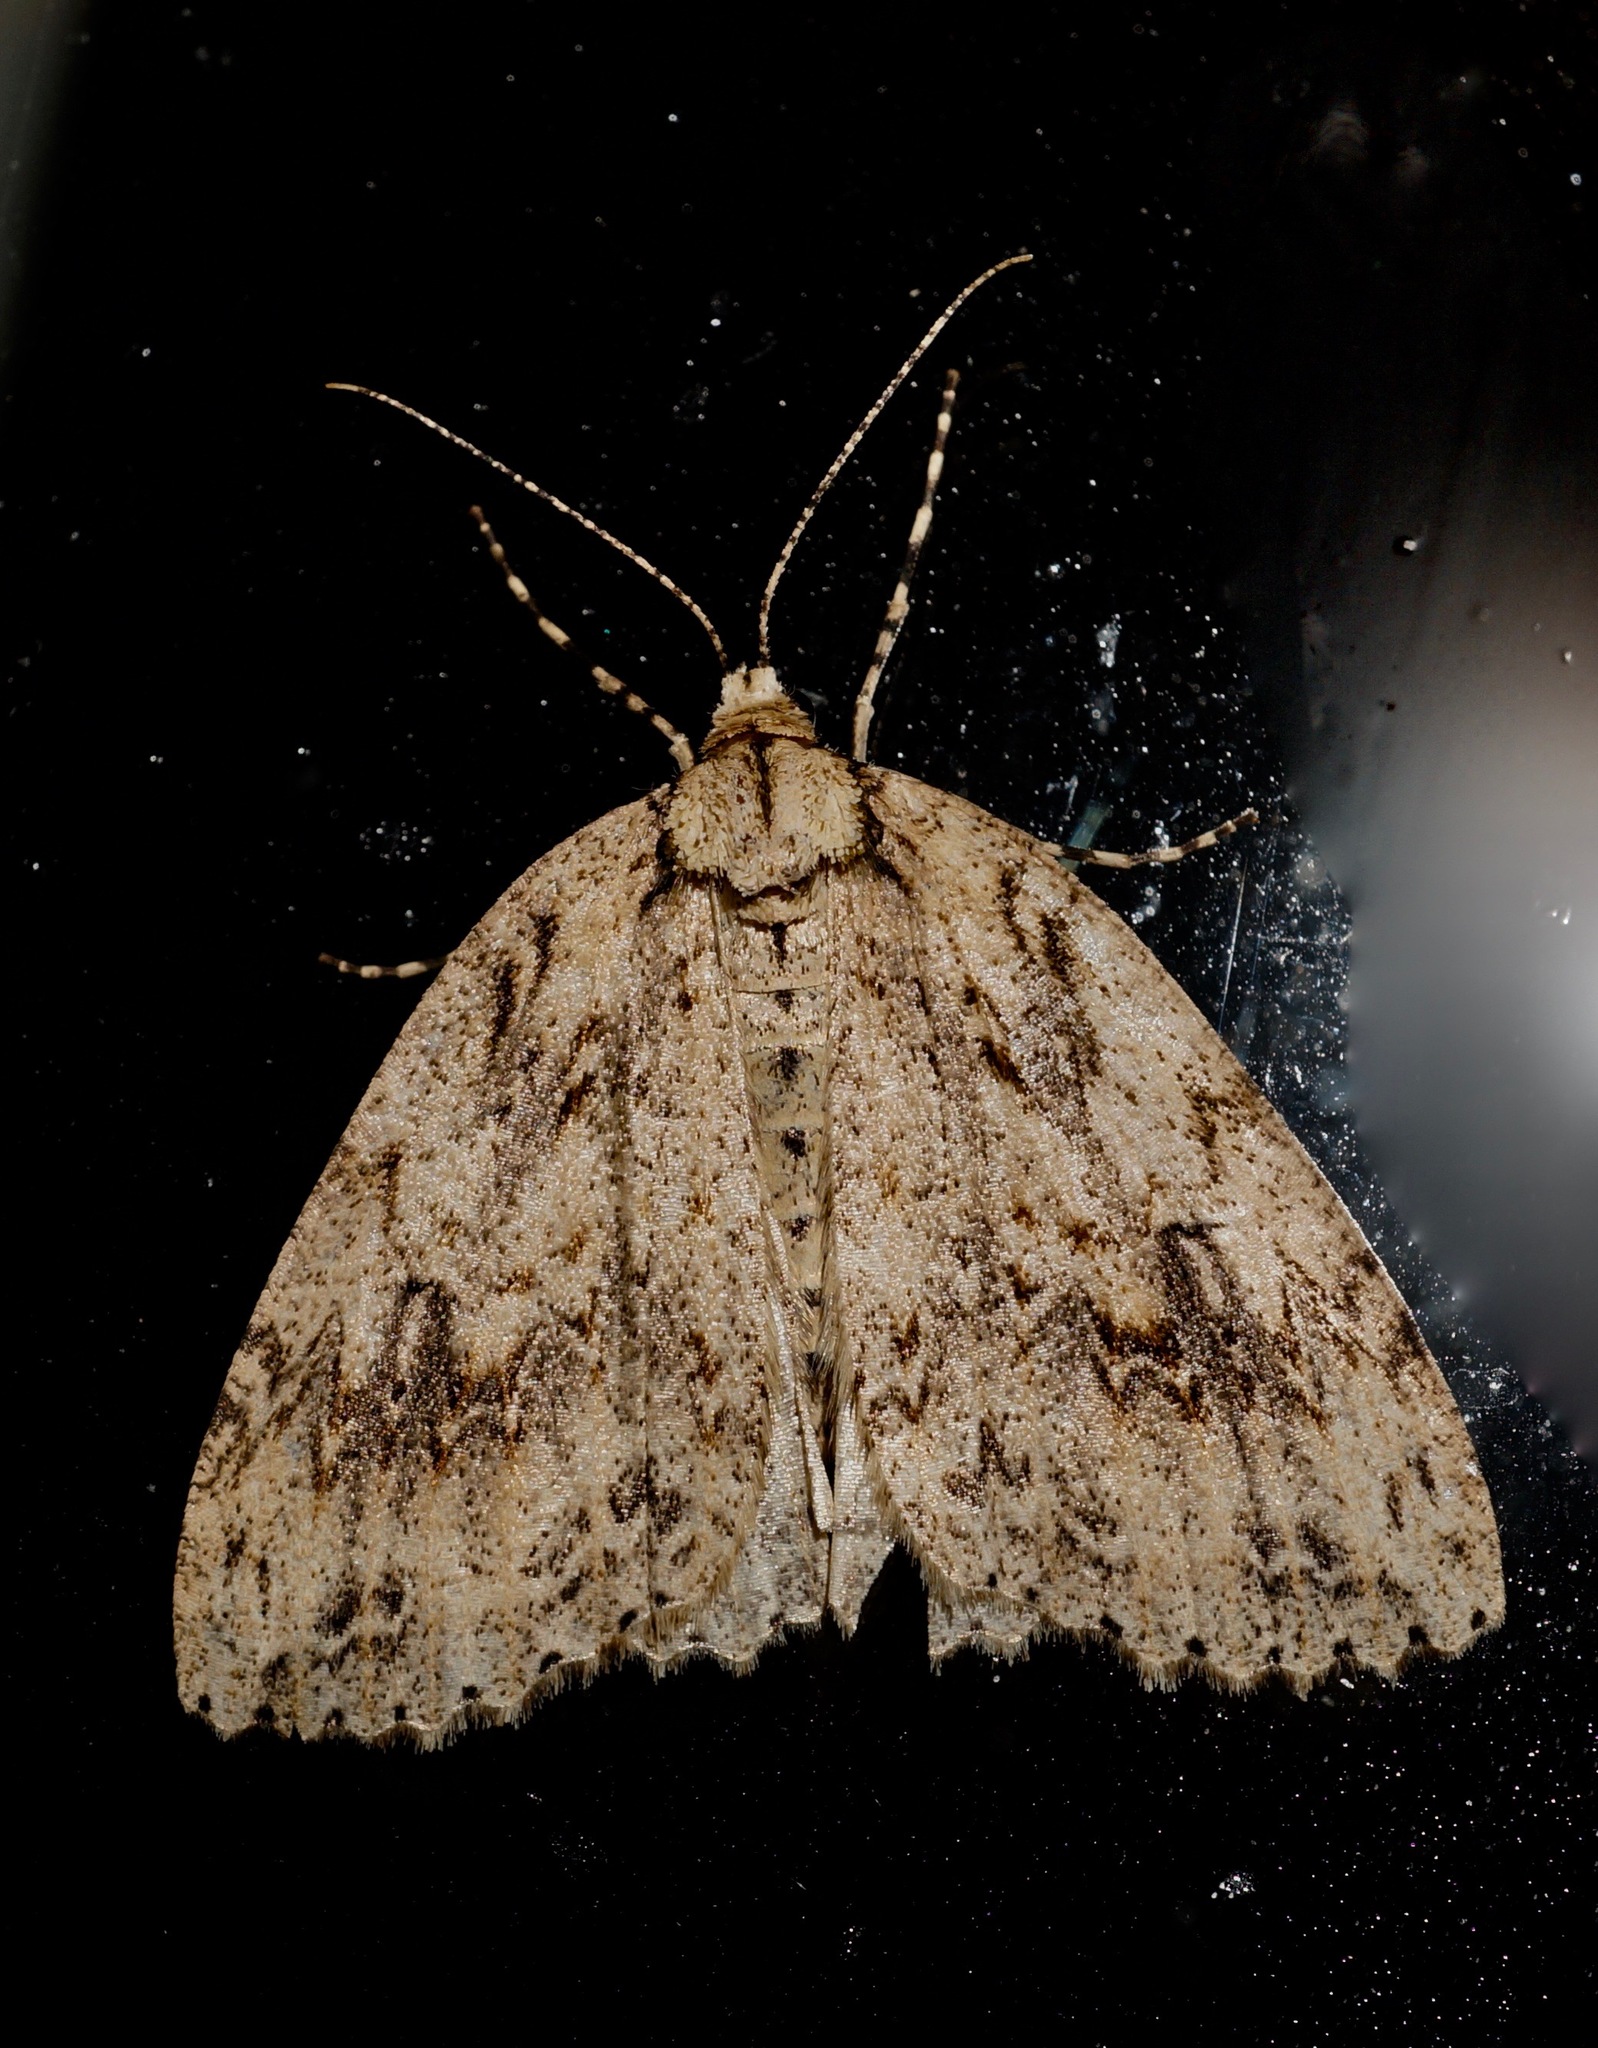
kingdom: Animalia
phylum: Arthropoda
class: Insecta
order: Lepidoptera
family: Geometridae
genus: Pseudocoremia
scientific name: Pseudocoremia rudisata
